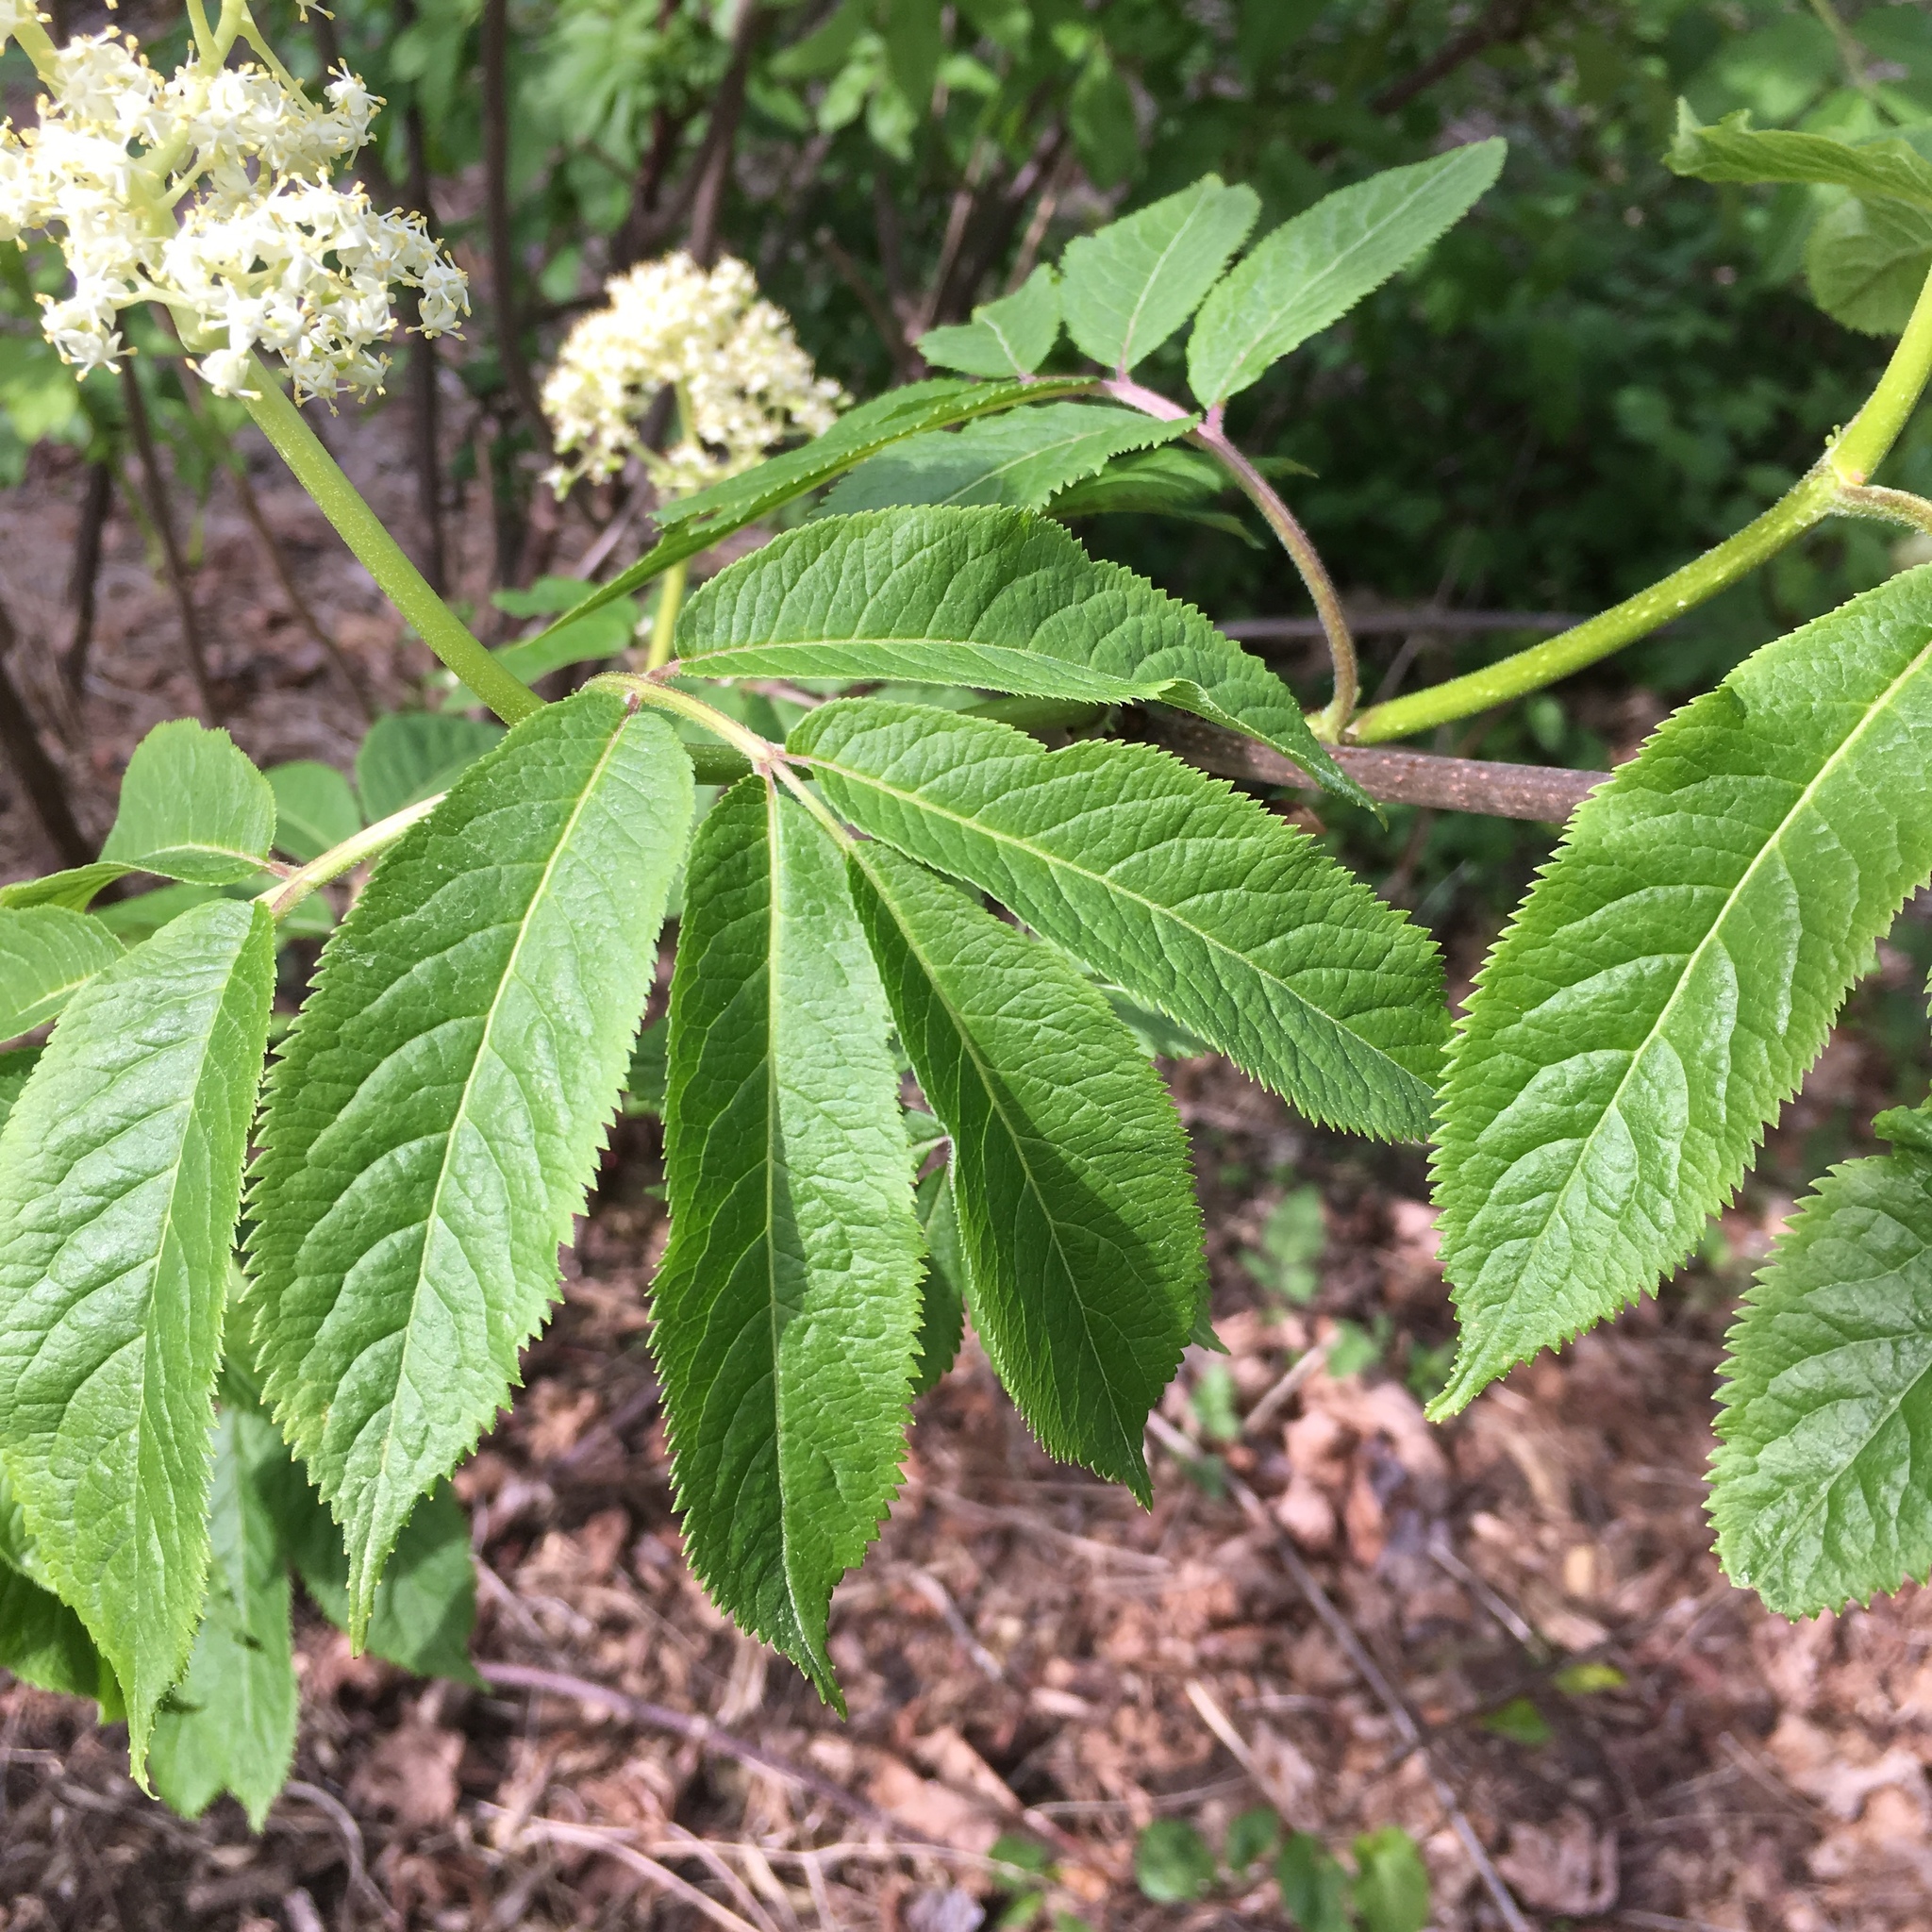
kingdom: Plantae
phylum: Tracheophyta
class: Magnoliopsida
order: Dipsacales
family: Viburnaceae
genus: Sambucus
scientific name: Sambucus racemosa
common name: Red-berried elder
